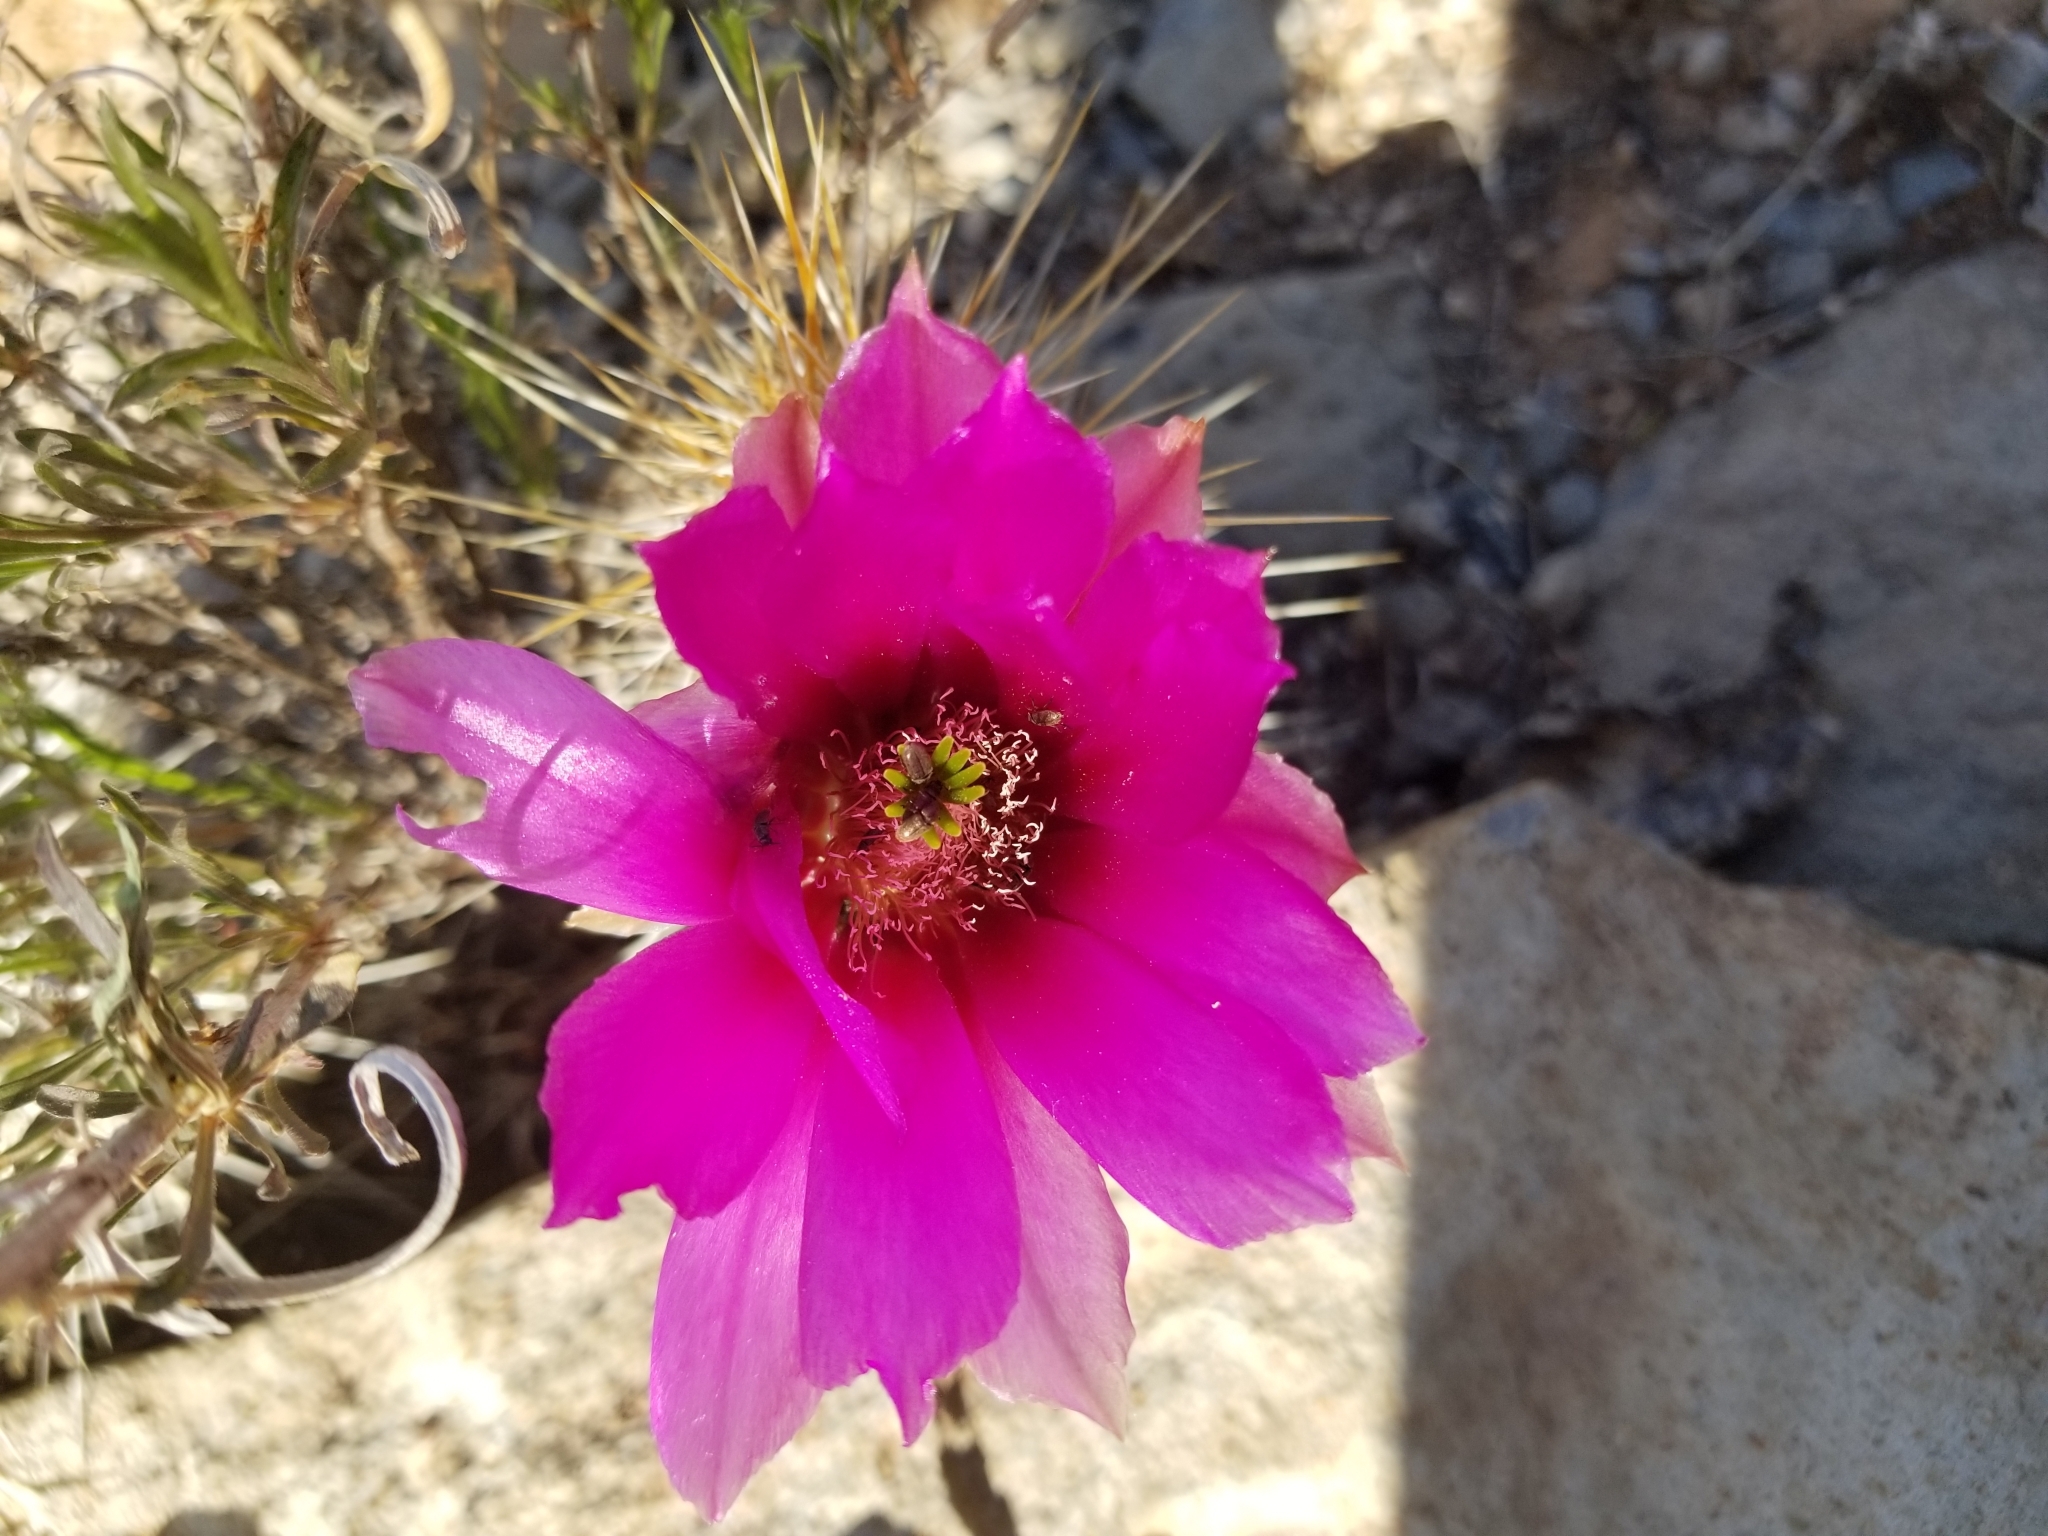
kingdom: Plantae
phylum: Tracheophyta
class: Magnoliopsida
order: Caryophyllales
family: Cactaceae
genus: Echinocereus
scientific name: Echinocereus fasciculatus
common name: Bundle hedgehog
